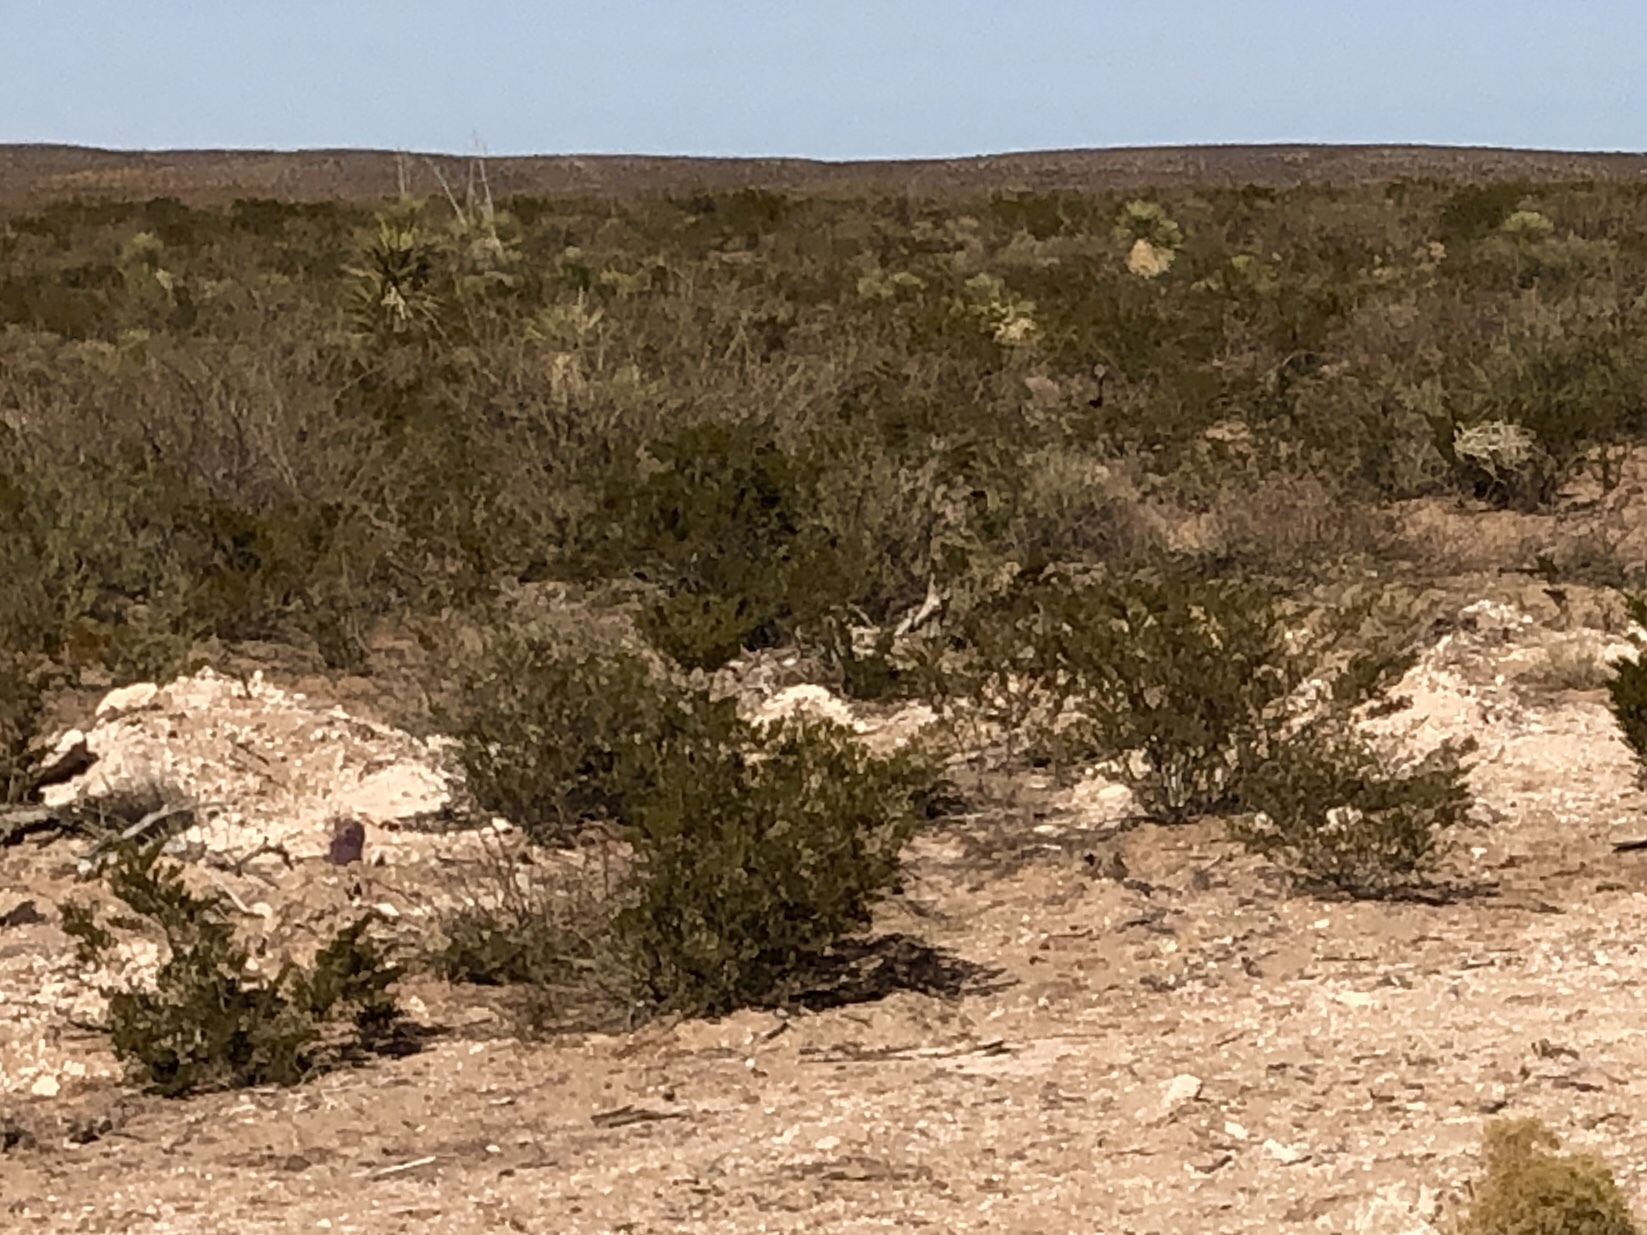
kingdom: Plantae
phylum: Tracheophyta
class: Magnoliopsida
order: Zygophyllales
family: Zygophyllaceae
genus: Larrea
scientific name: Larrea tridentata
